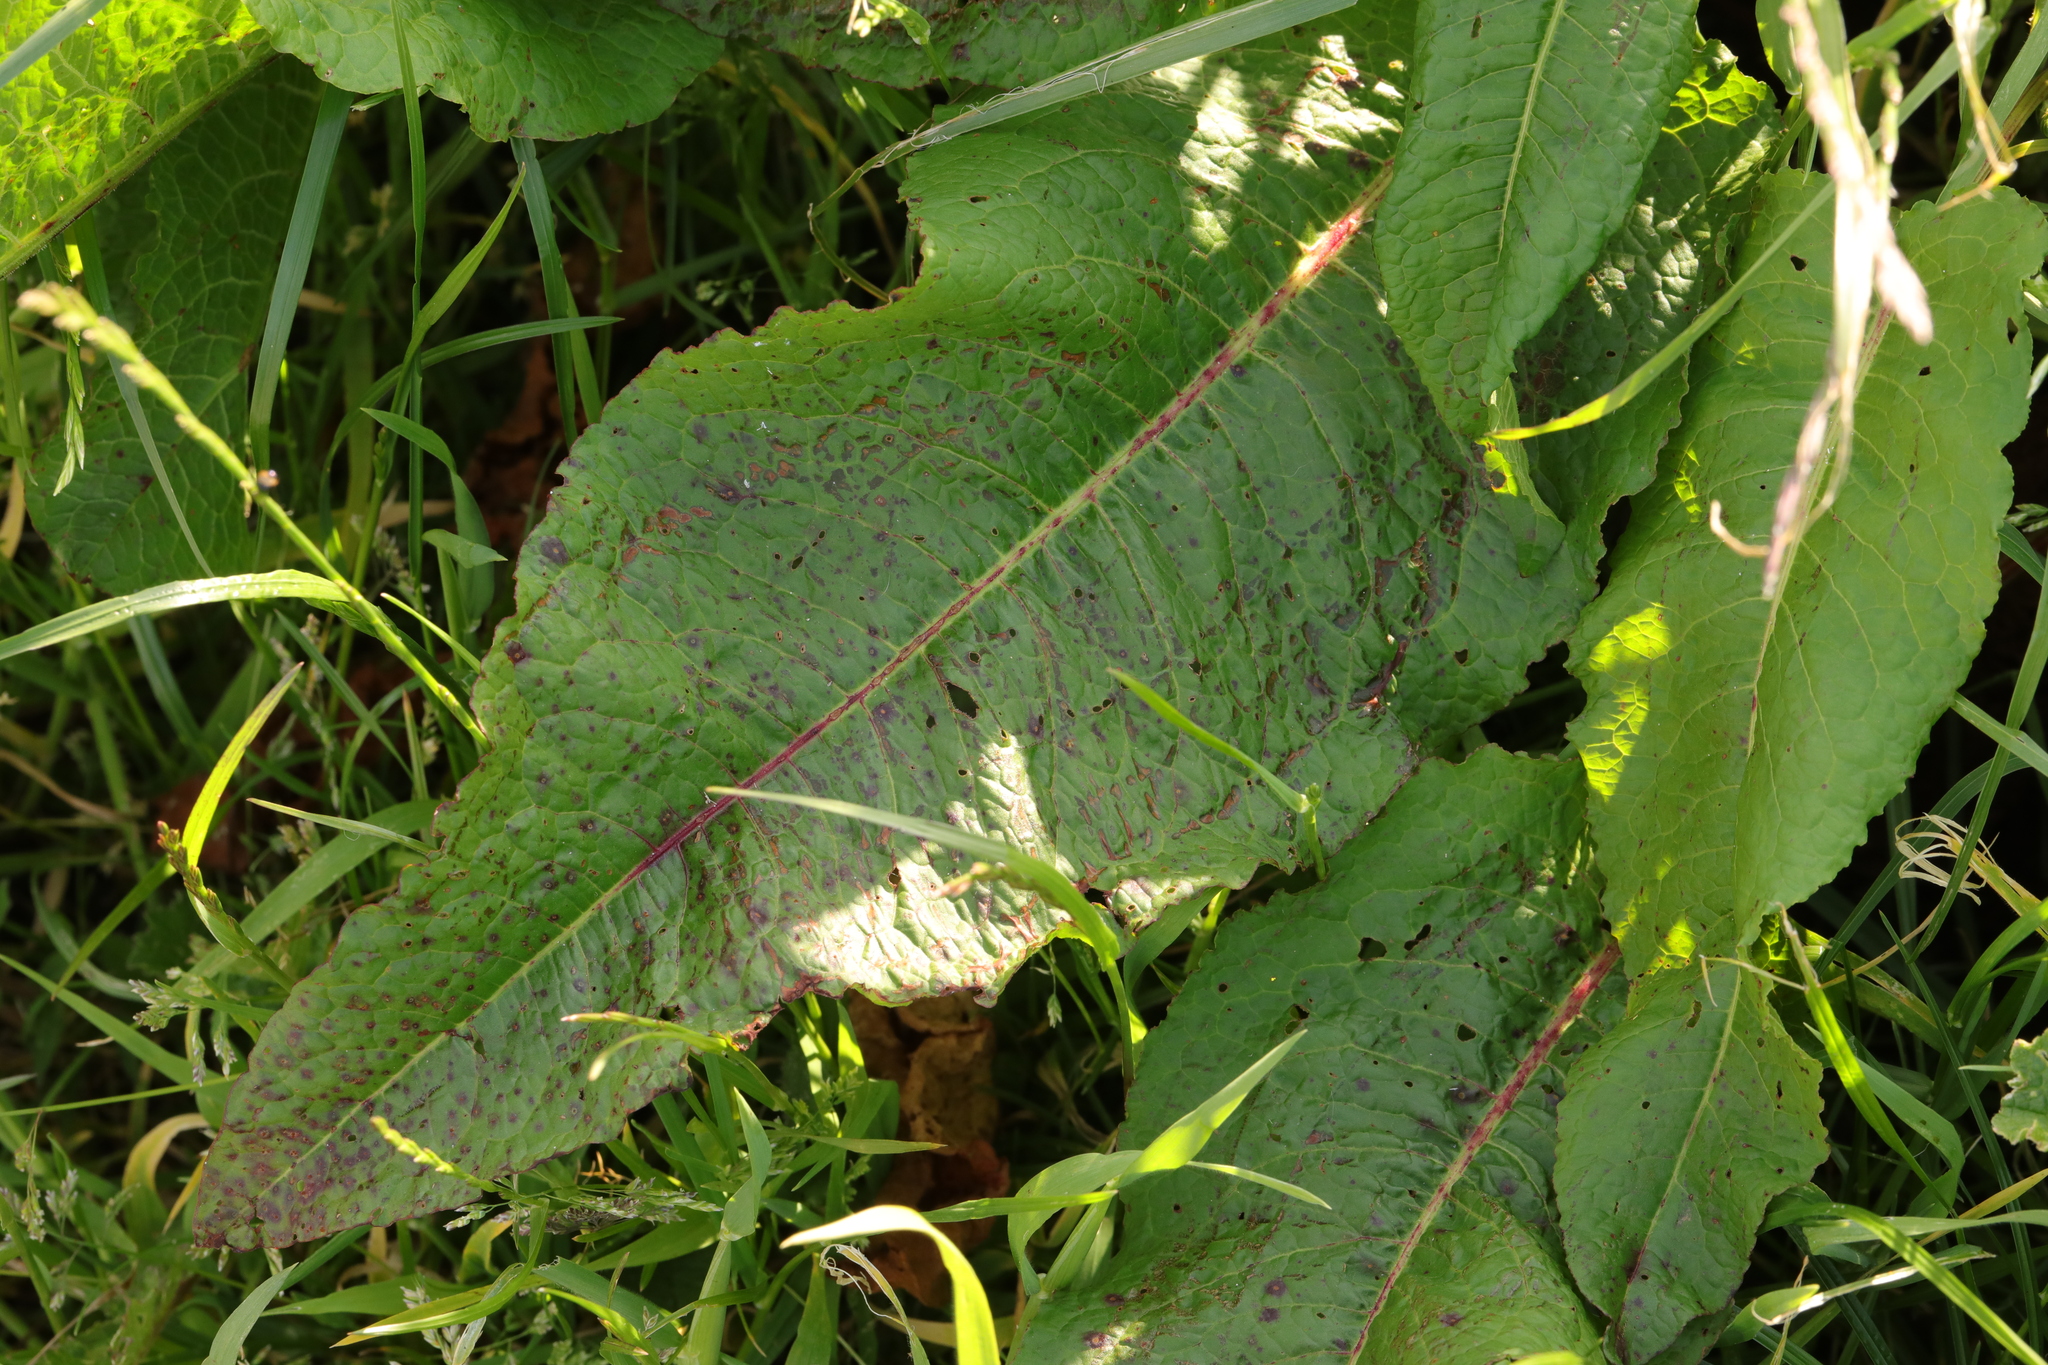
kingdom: Plantae
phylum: Tracheophyta
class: Magnoliopsida
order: Caryophyllales
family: Polygonaceae
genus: Rumex
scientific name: Rumex obtusifolius
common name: Bitter dock
